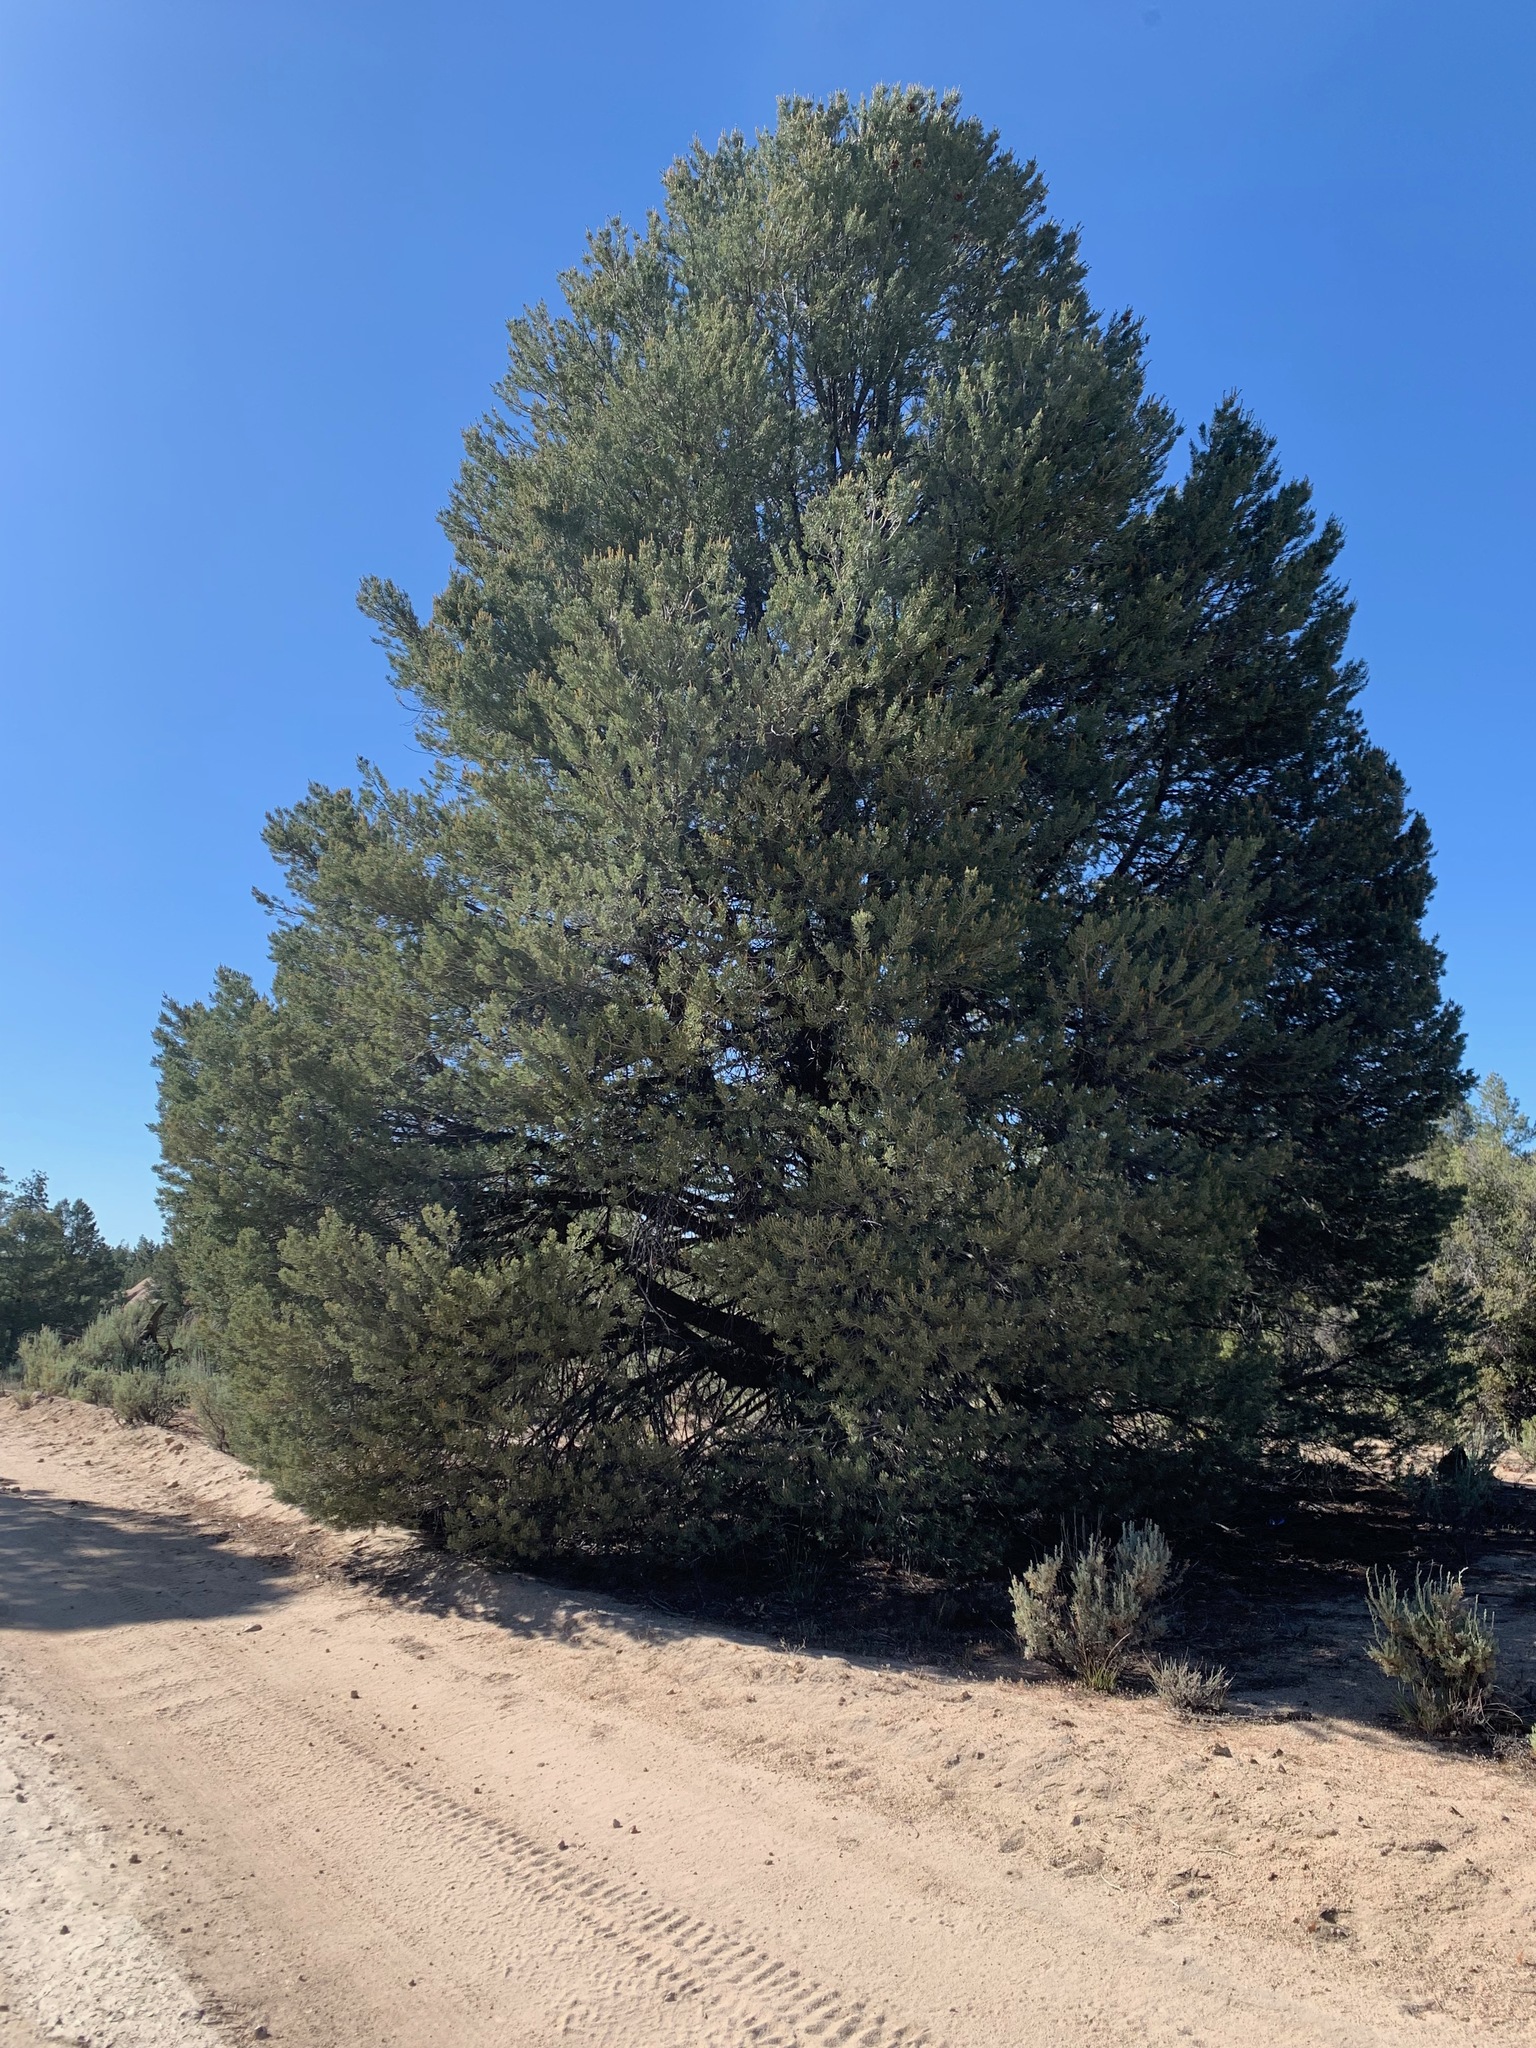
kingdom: Plantae
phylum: Tracheophyta
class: Pinopsida
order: Pinales
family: Pinaceae
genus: Pinus
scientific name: Pinus quadrifolia
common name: Parry pinyon
